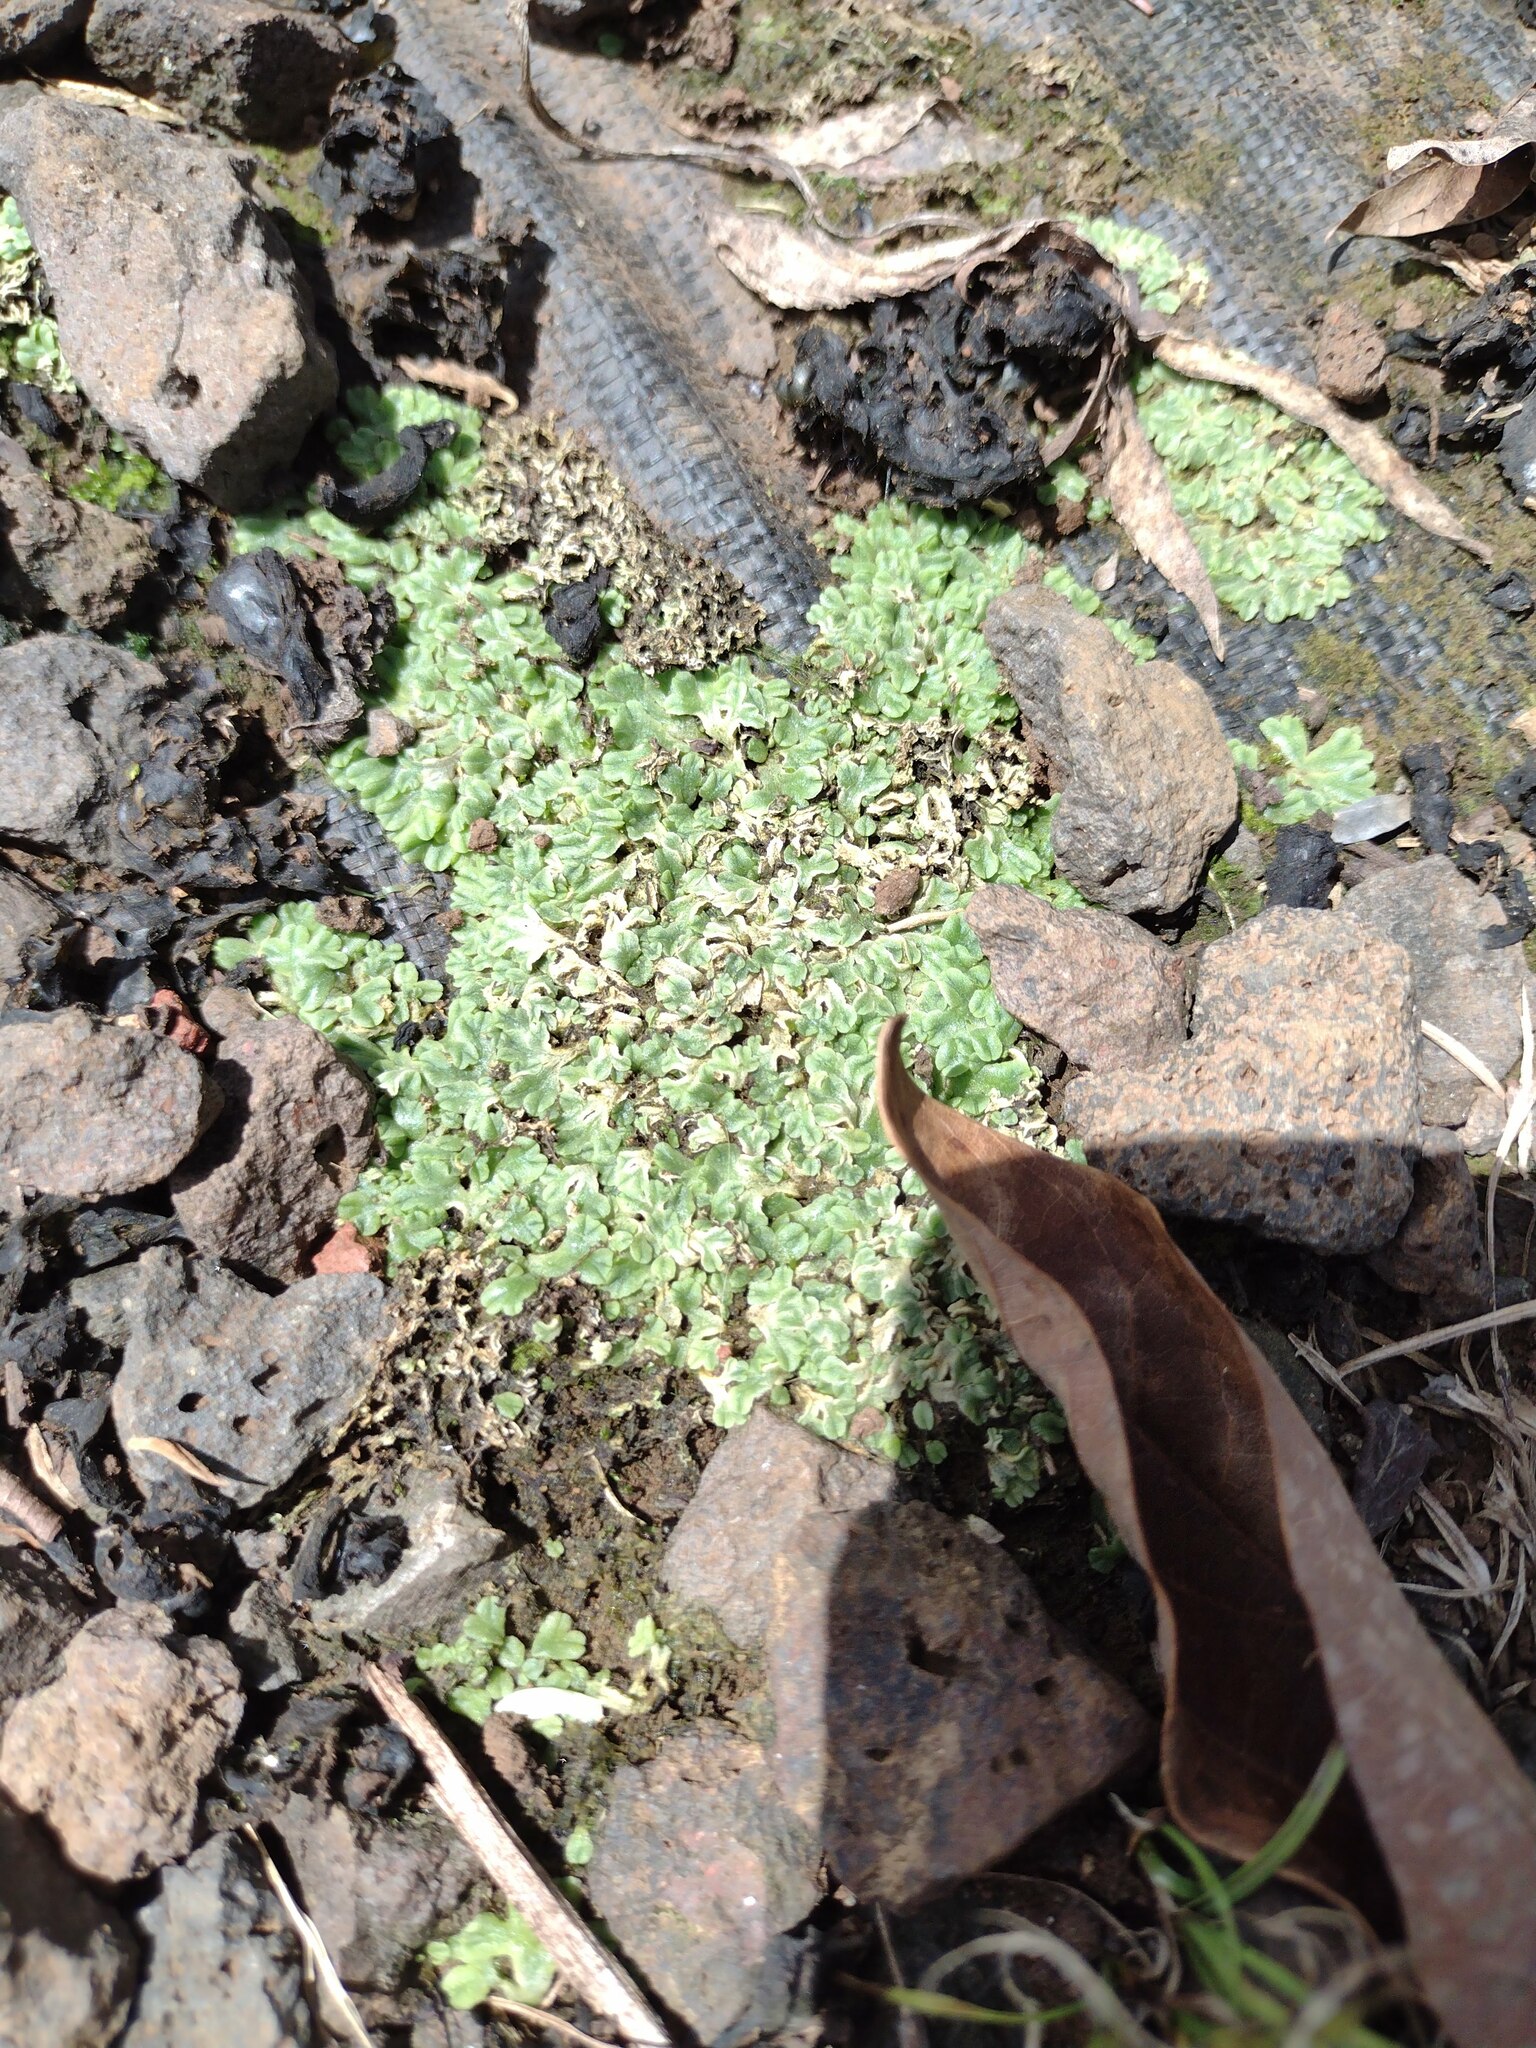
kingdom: Plantae
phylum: Marchantiophyta
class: Marchantiopsida
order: Marchantiales
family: Ricciaceae
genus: Riccia
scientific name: Riccia hawaiiensis
